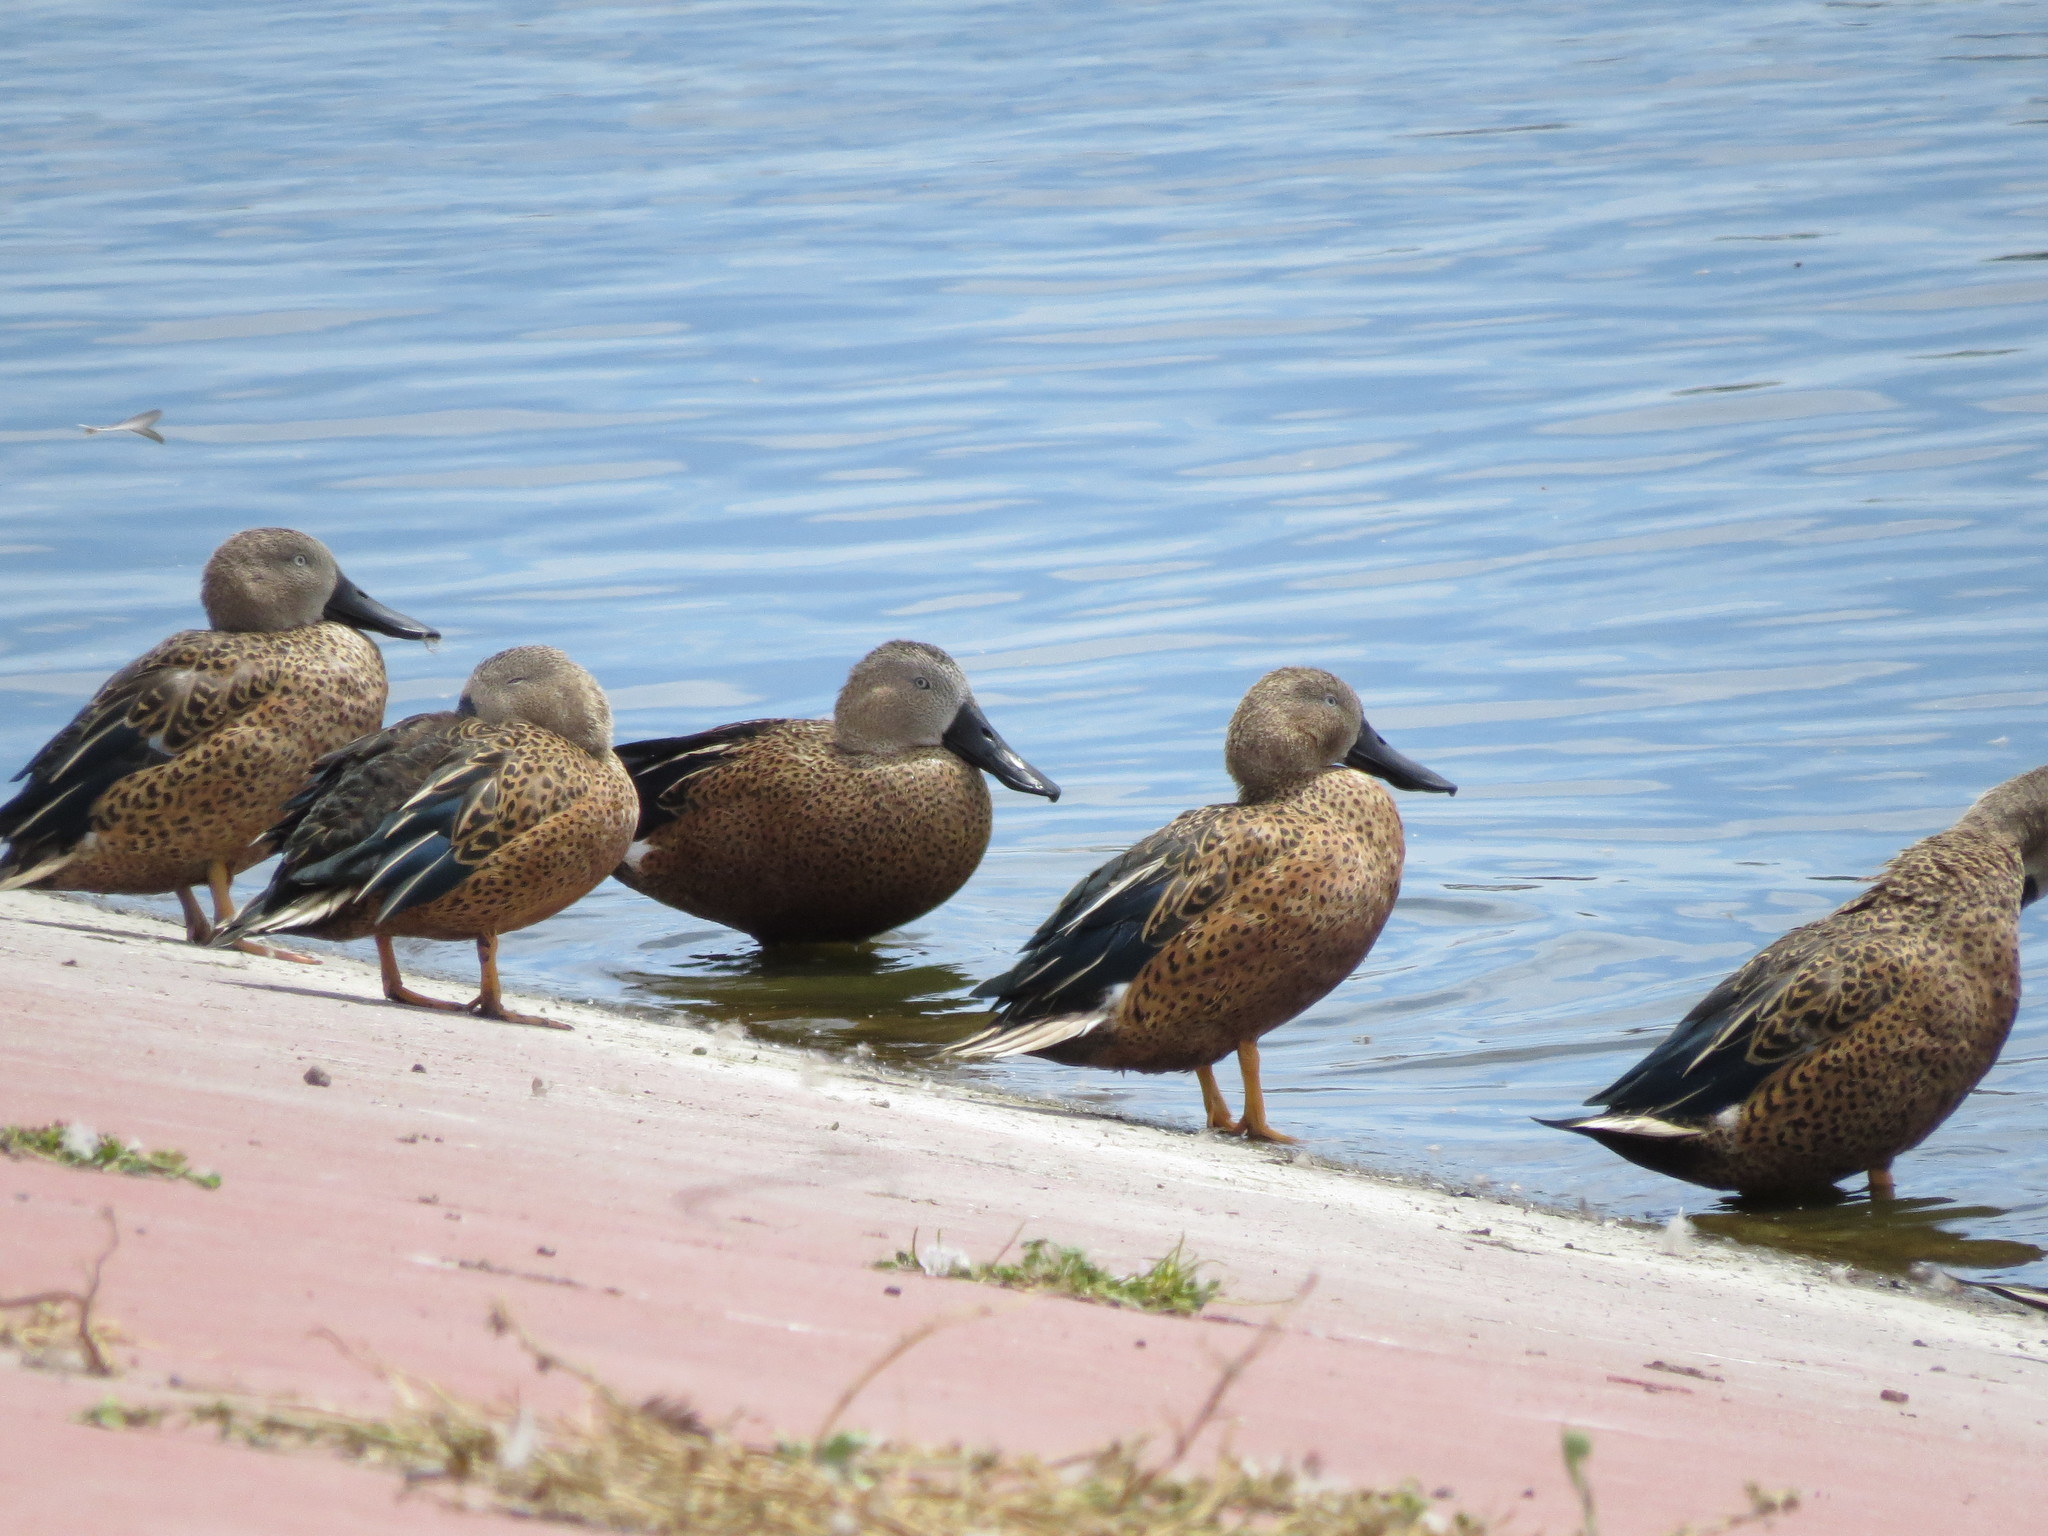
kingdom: Animalia
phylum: Chordata
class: Aves
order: Anseriformes
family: Anatidae
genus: Spatula
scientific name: Spatula platalea
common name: Red shoveler
